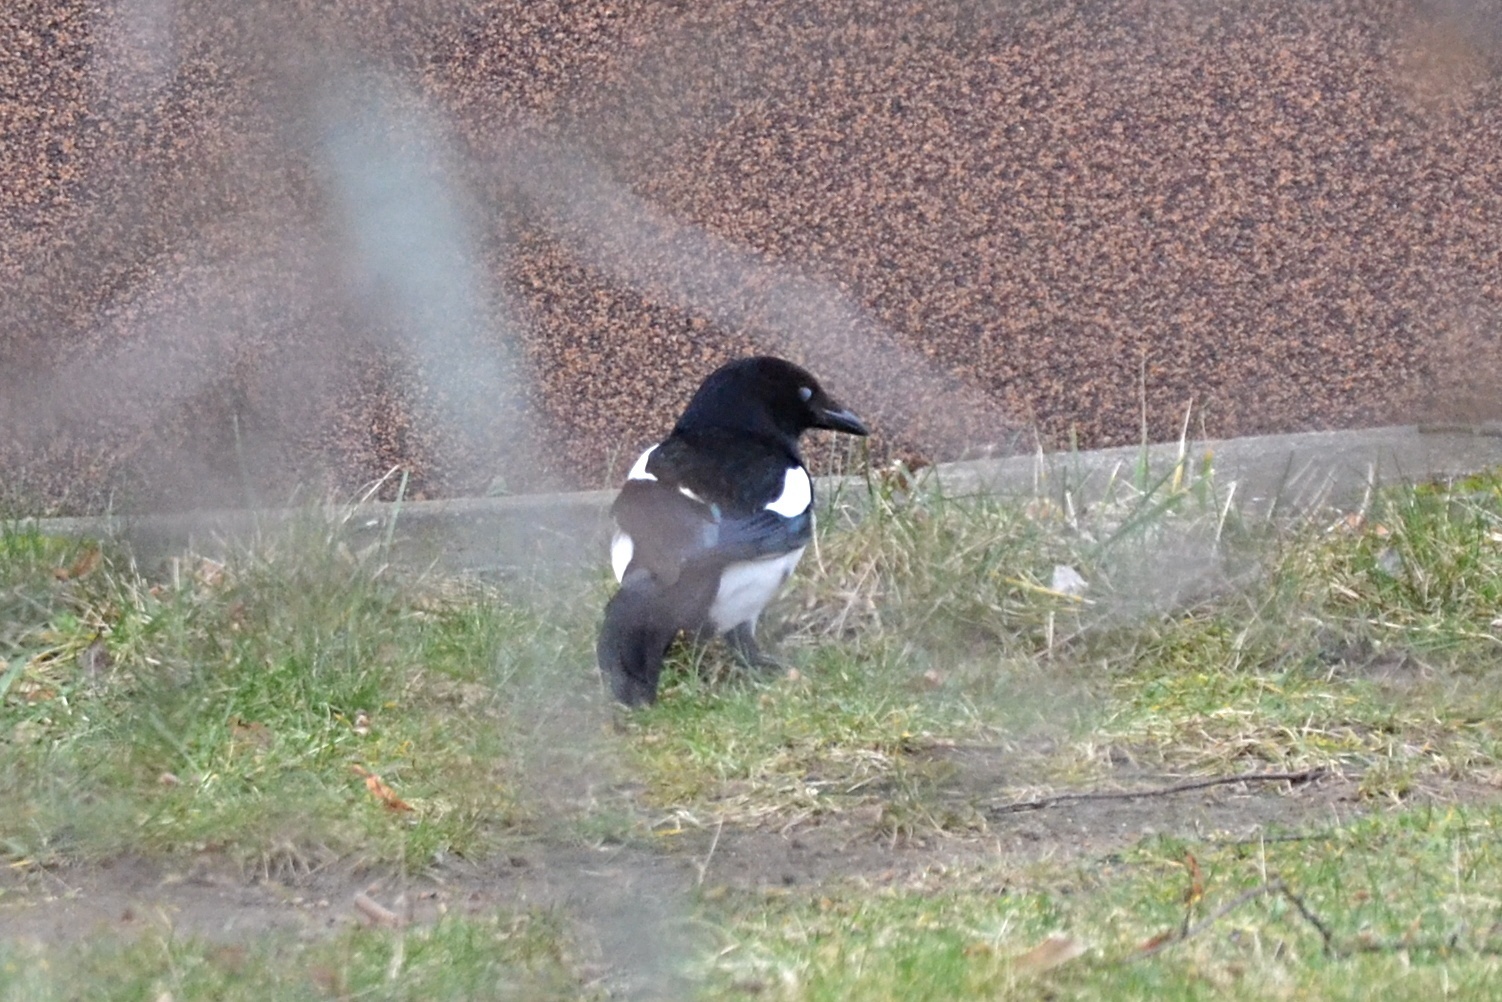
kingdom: Animalia
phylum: Chordata
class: Aves
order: Passeriformes
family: Corvidae
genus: Pica
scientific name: Pica pica
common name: Eurasian magpie
